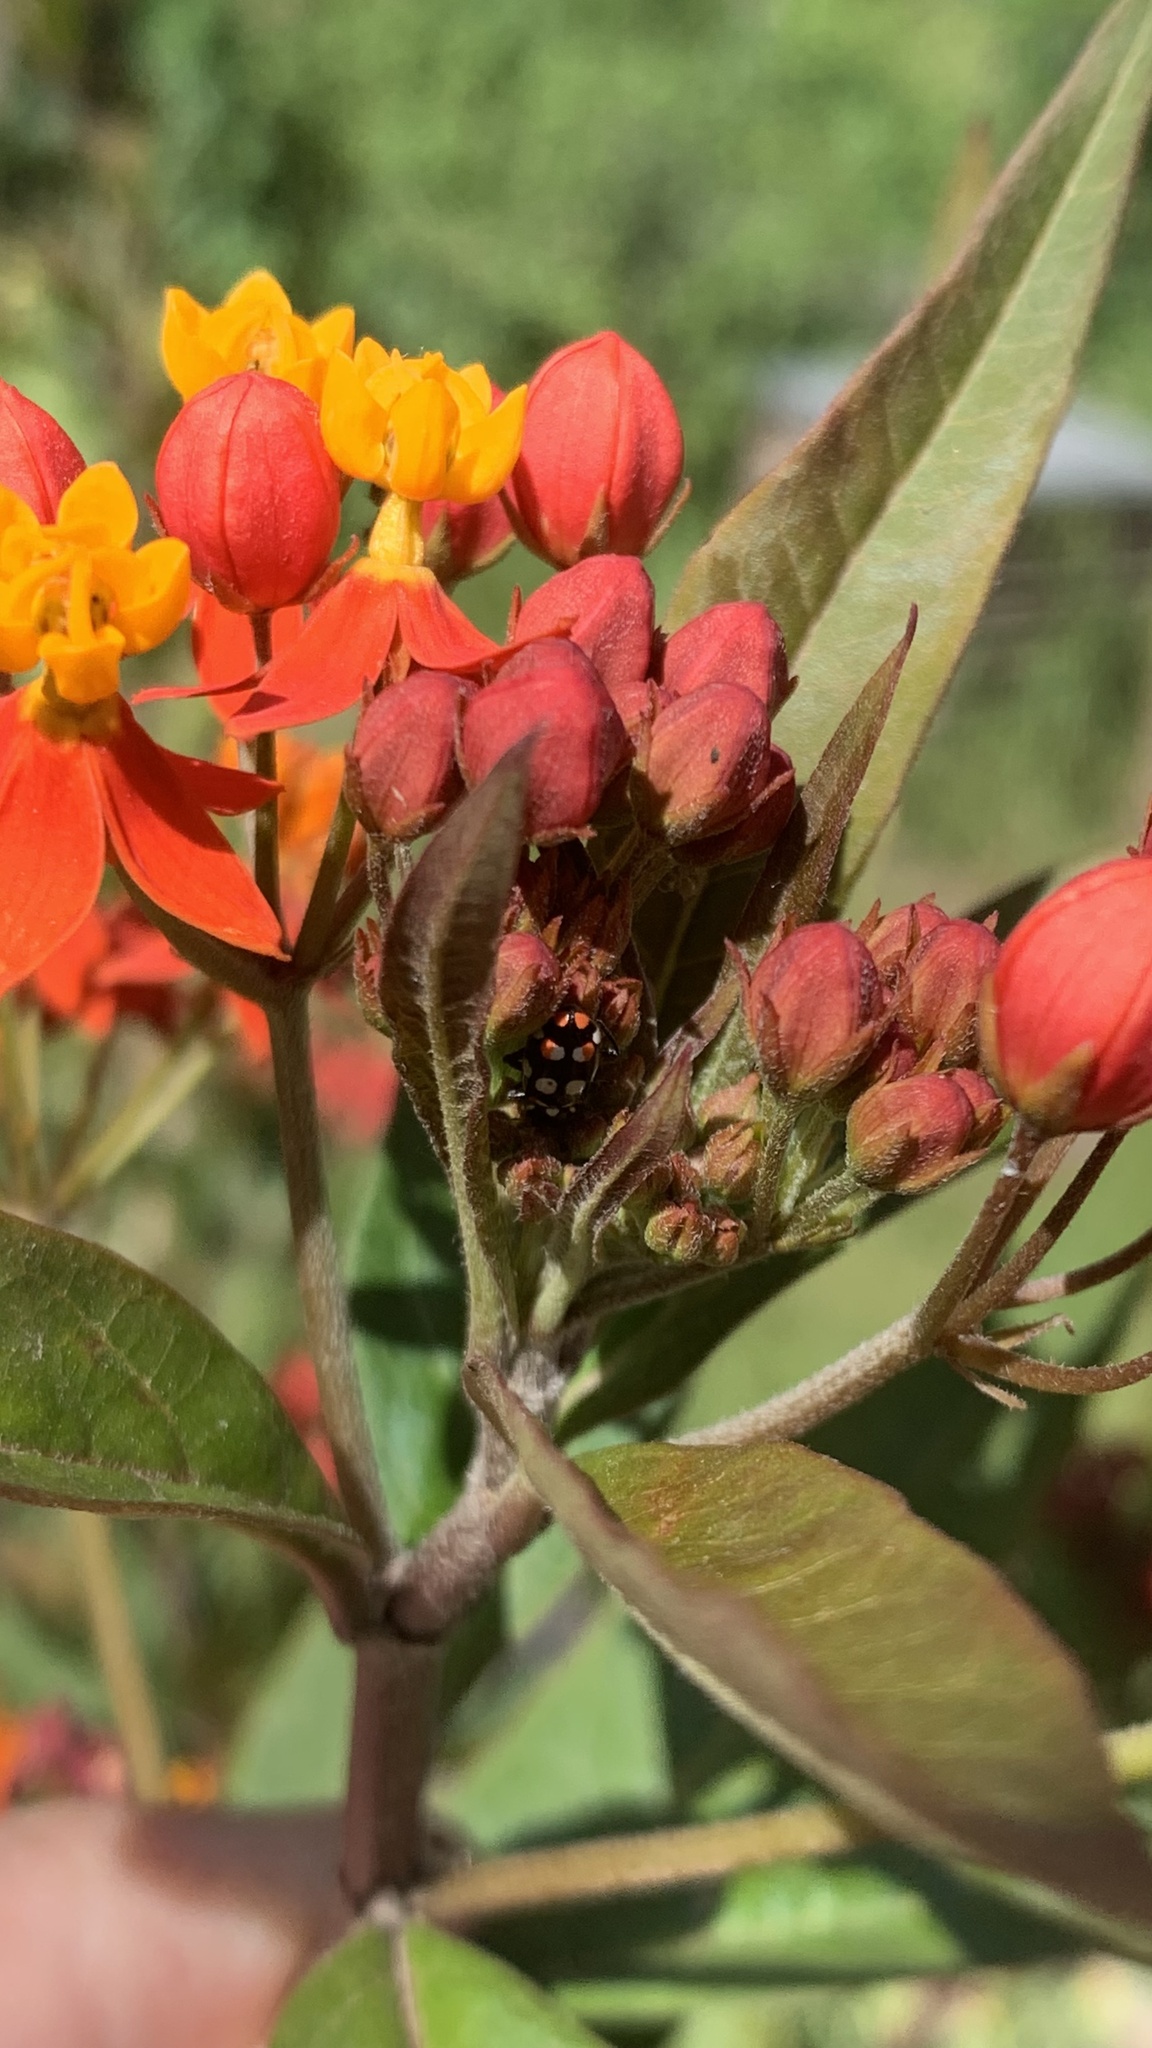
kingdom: Animalia
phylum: Arthropoda
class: Insecta
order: Coleoptera
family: Coccinellidae
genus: Eriopis
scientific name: Eriopis connexa
